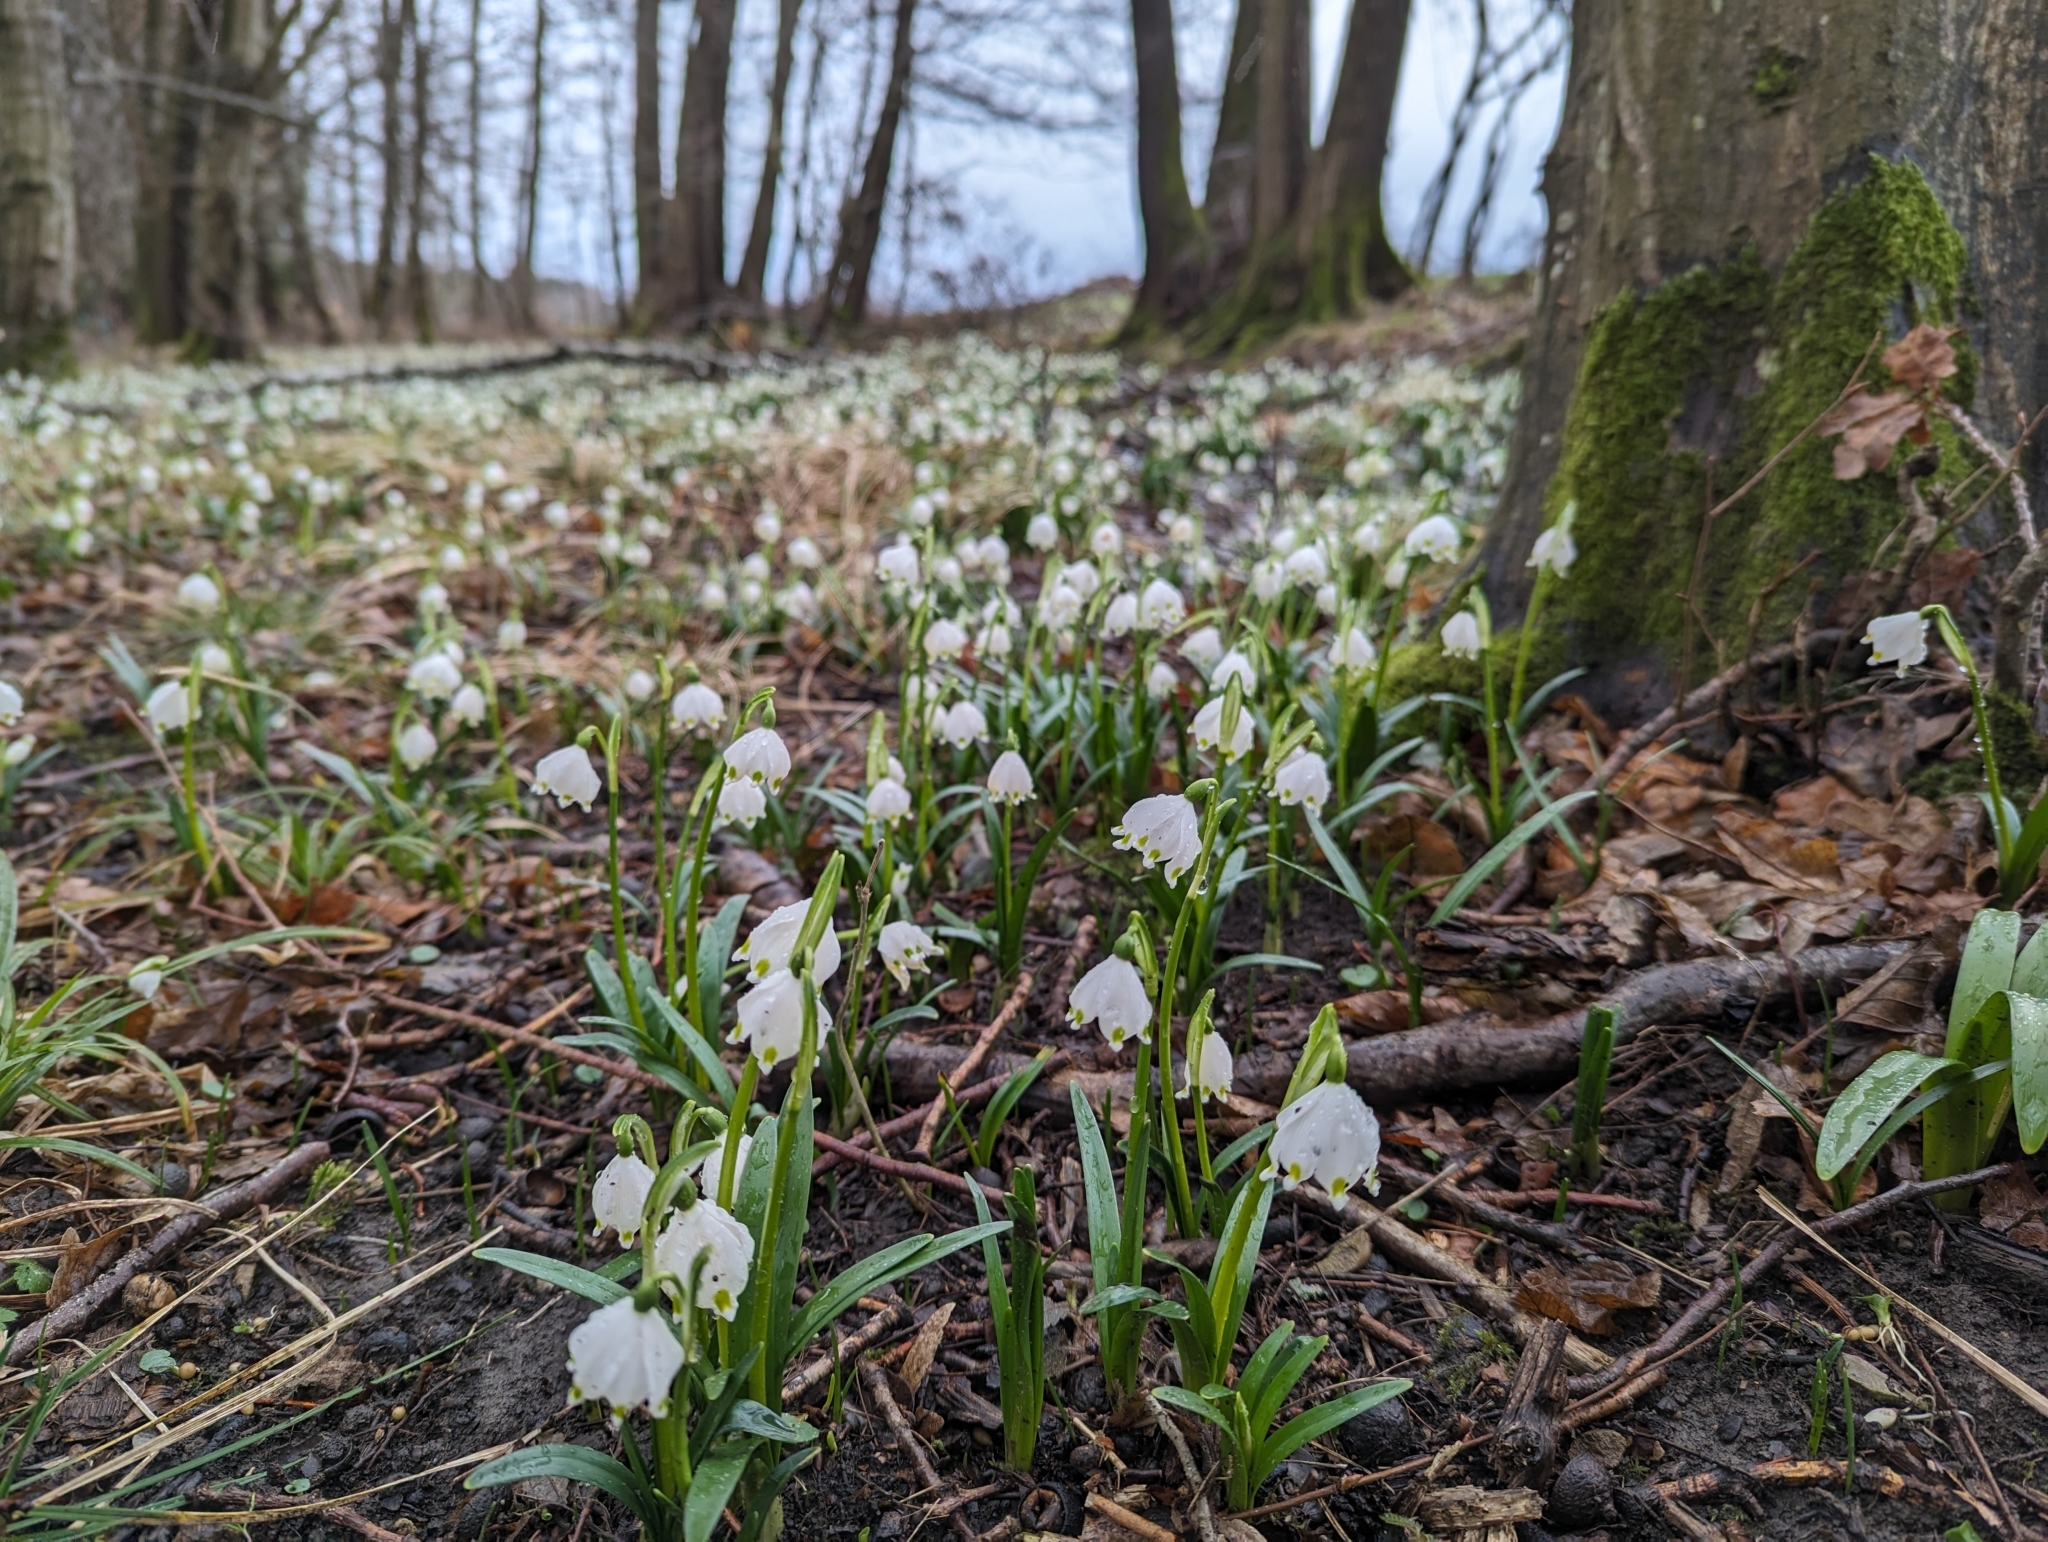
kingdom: Plantae
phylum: Tracheophyta
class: Liliopsida
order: Asparagales
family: Amaryllidaceae
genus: Leucojum
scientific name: Leucojum vernum
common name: Spring snowflake
